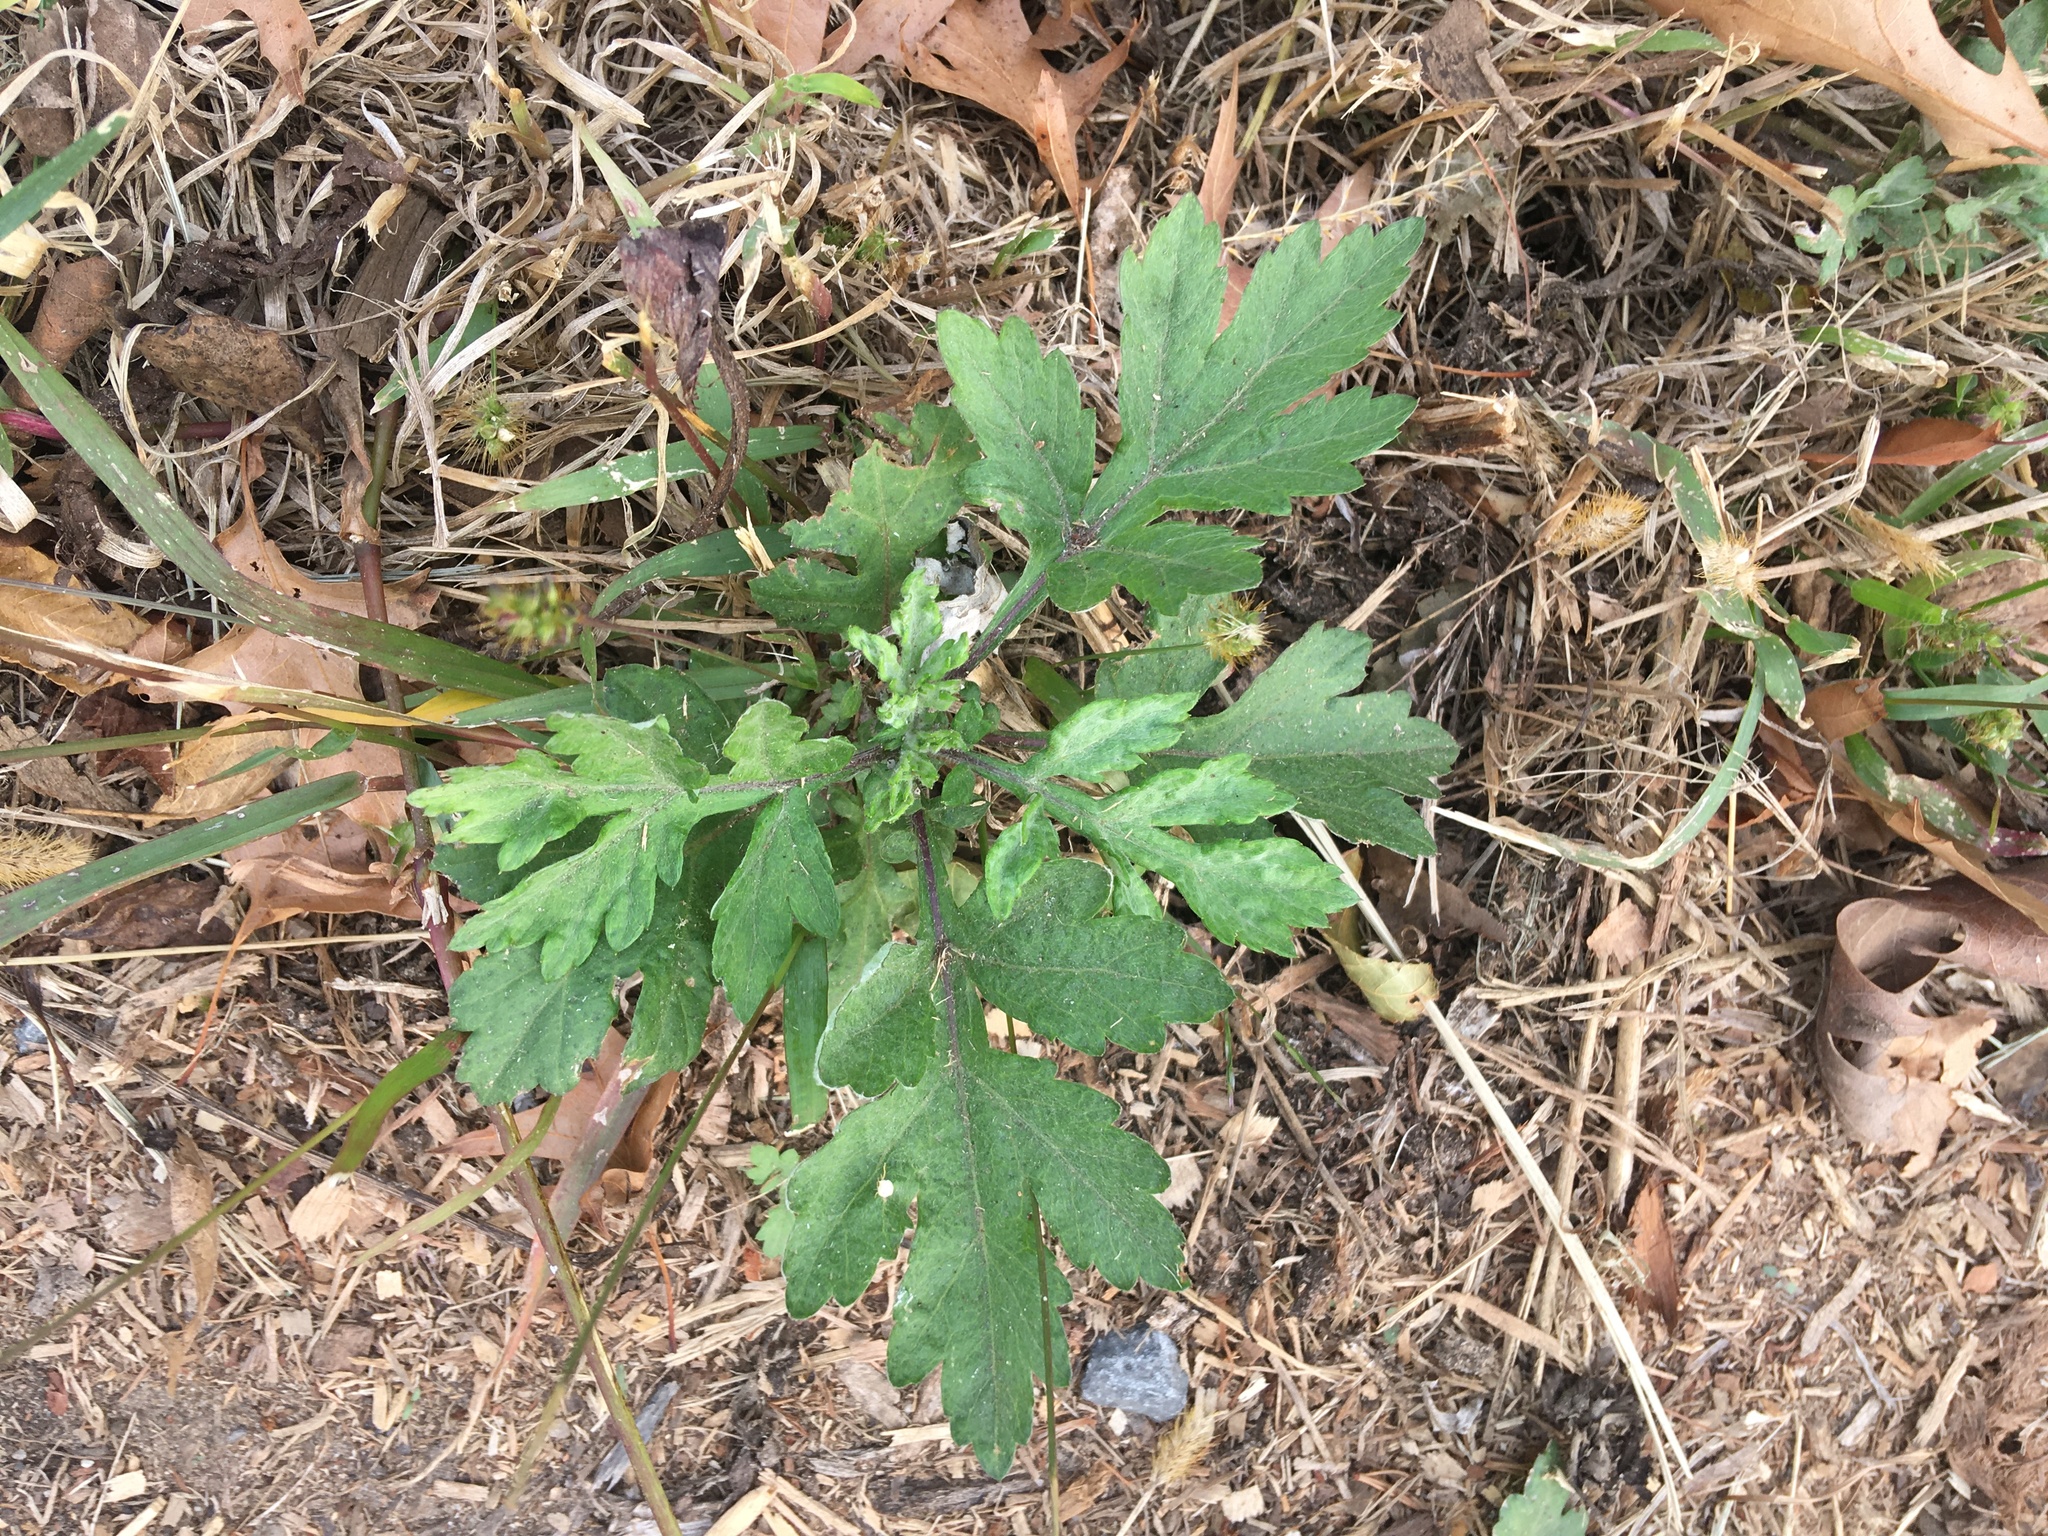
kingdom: Plantae
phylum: Tracheophyta
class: Magnoliopsida
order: Asterales
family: Asteraceae
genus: Artemisia
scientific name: Artemisia vulgaris
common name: Mugwort
